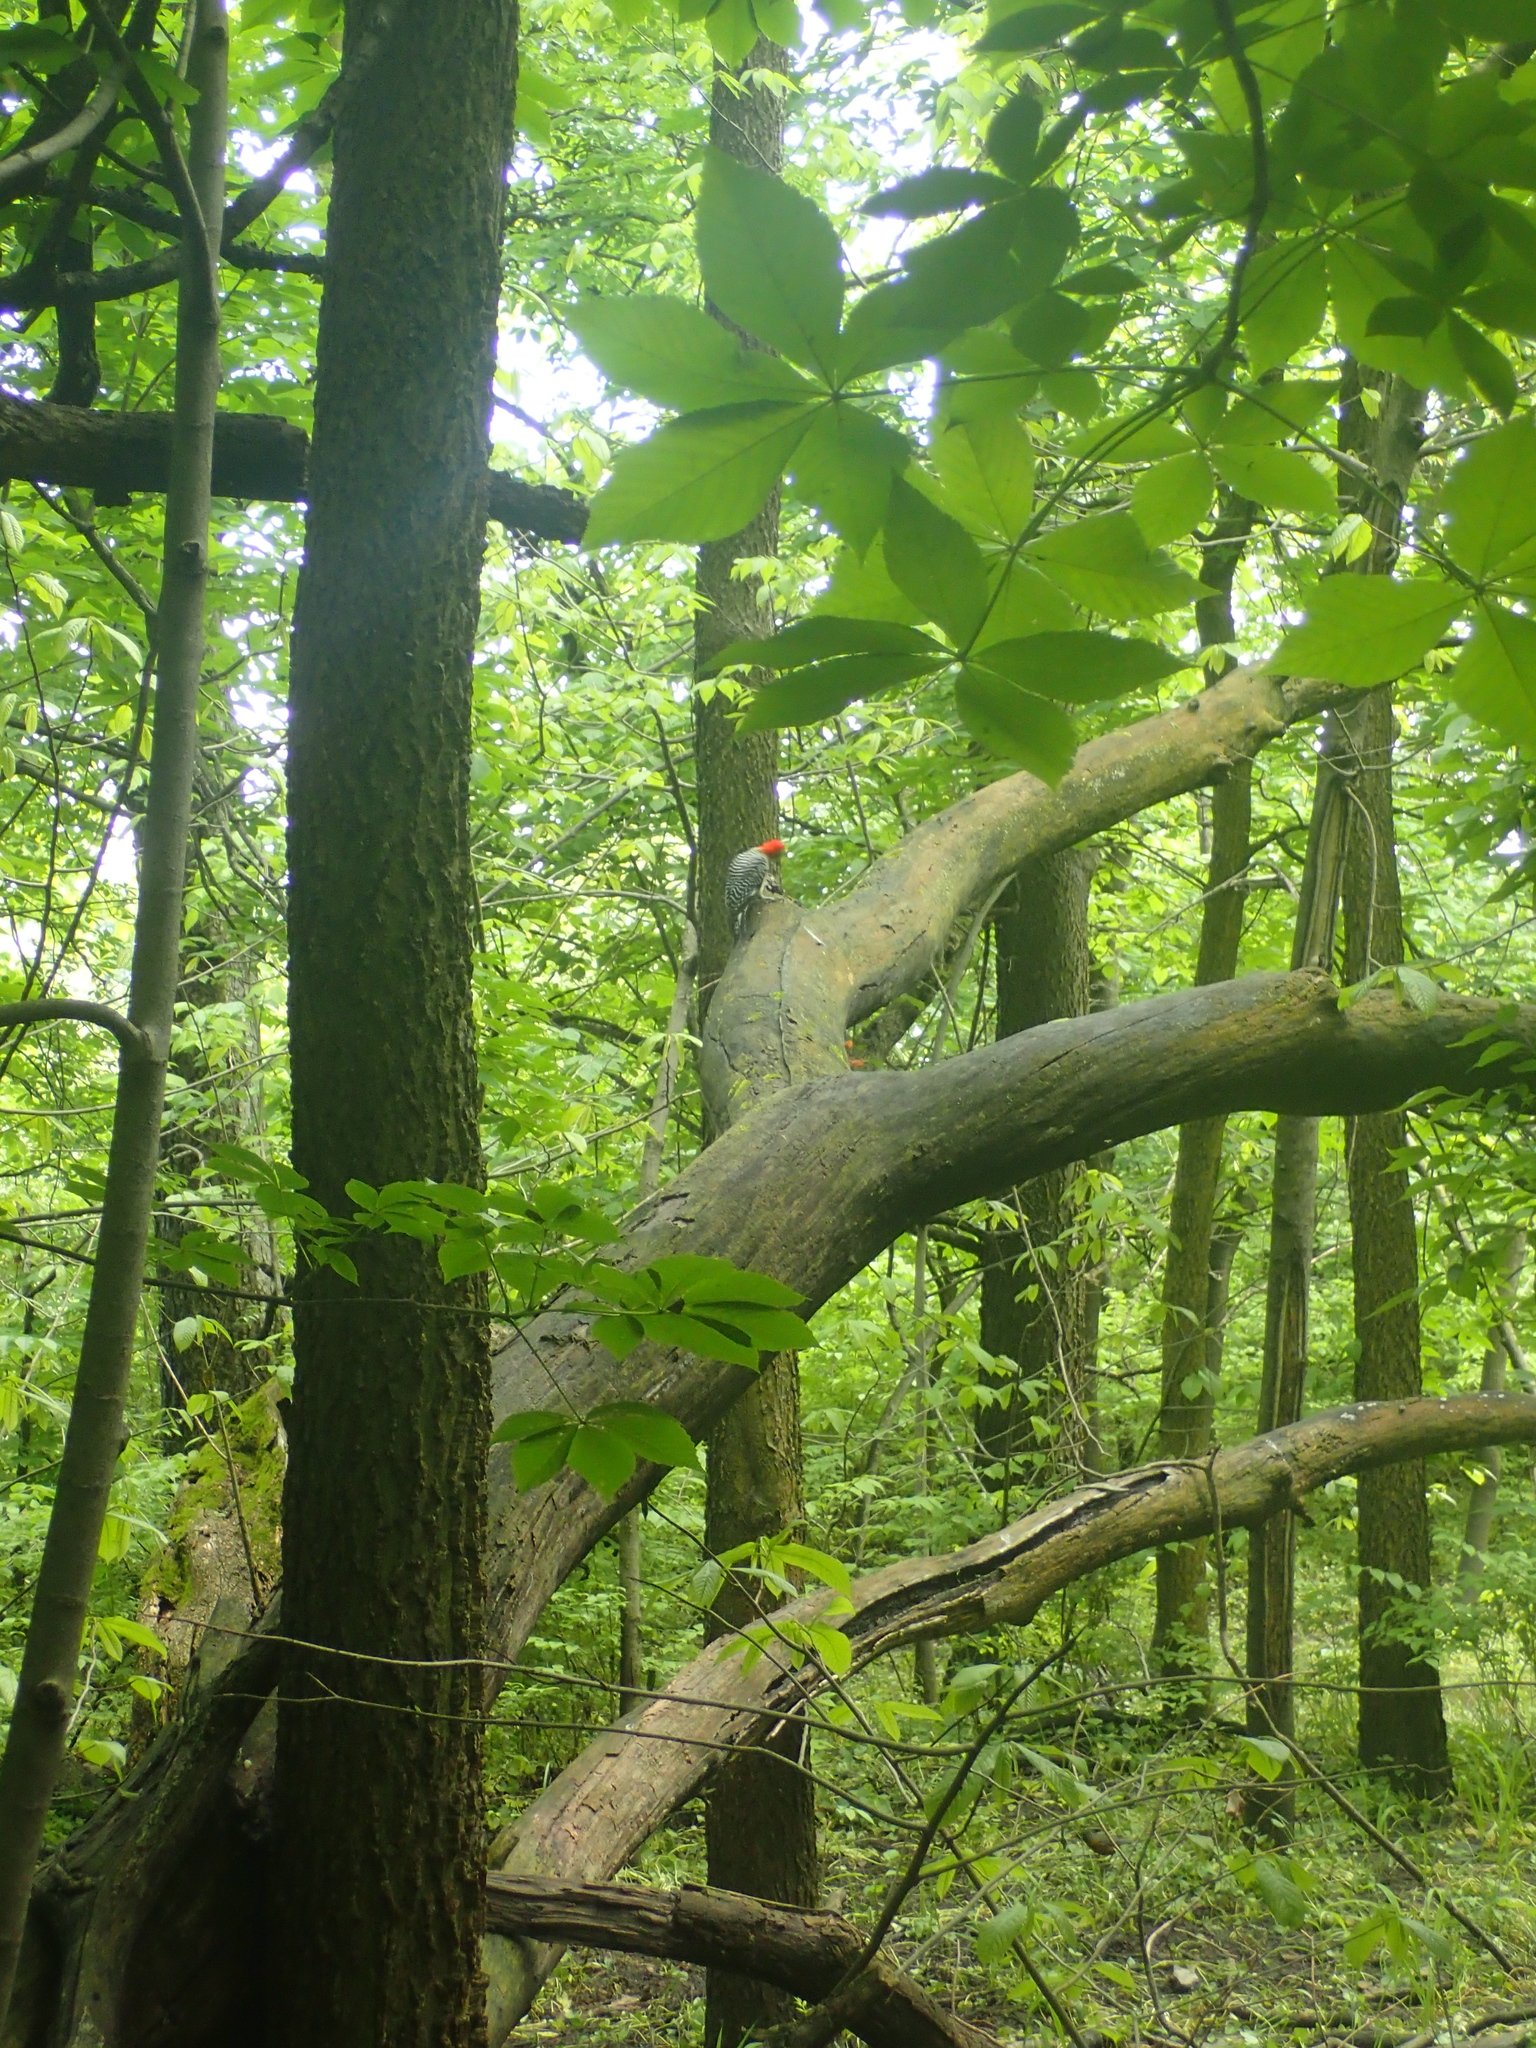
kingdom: Animalia
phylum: Chordata
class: Aves
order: Piciformes
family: Picidae
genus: Melanerpes
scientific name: Melanerpes carolinus
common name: Red-bellied woodpecker
